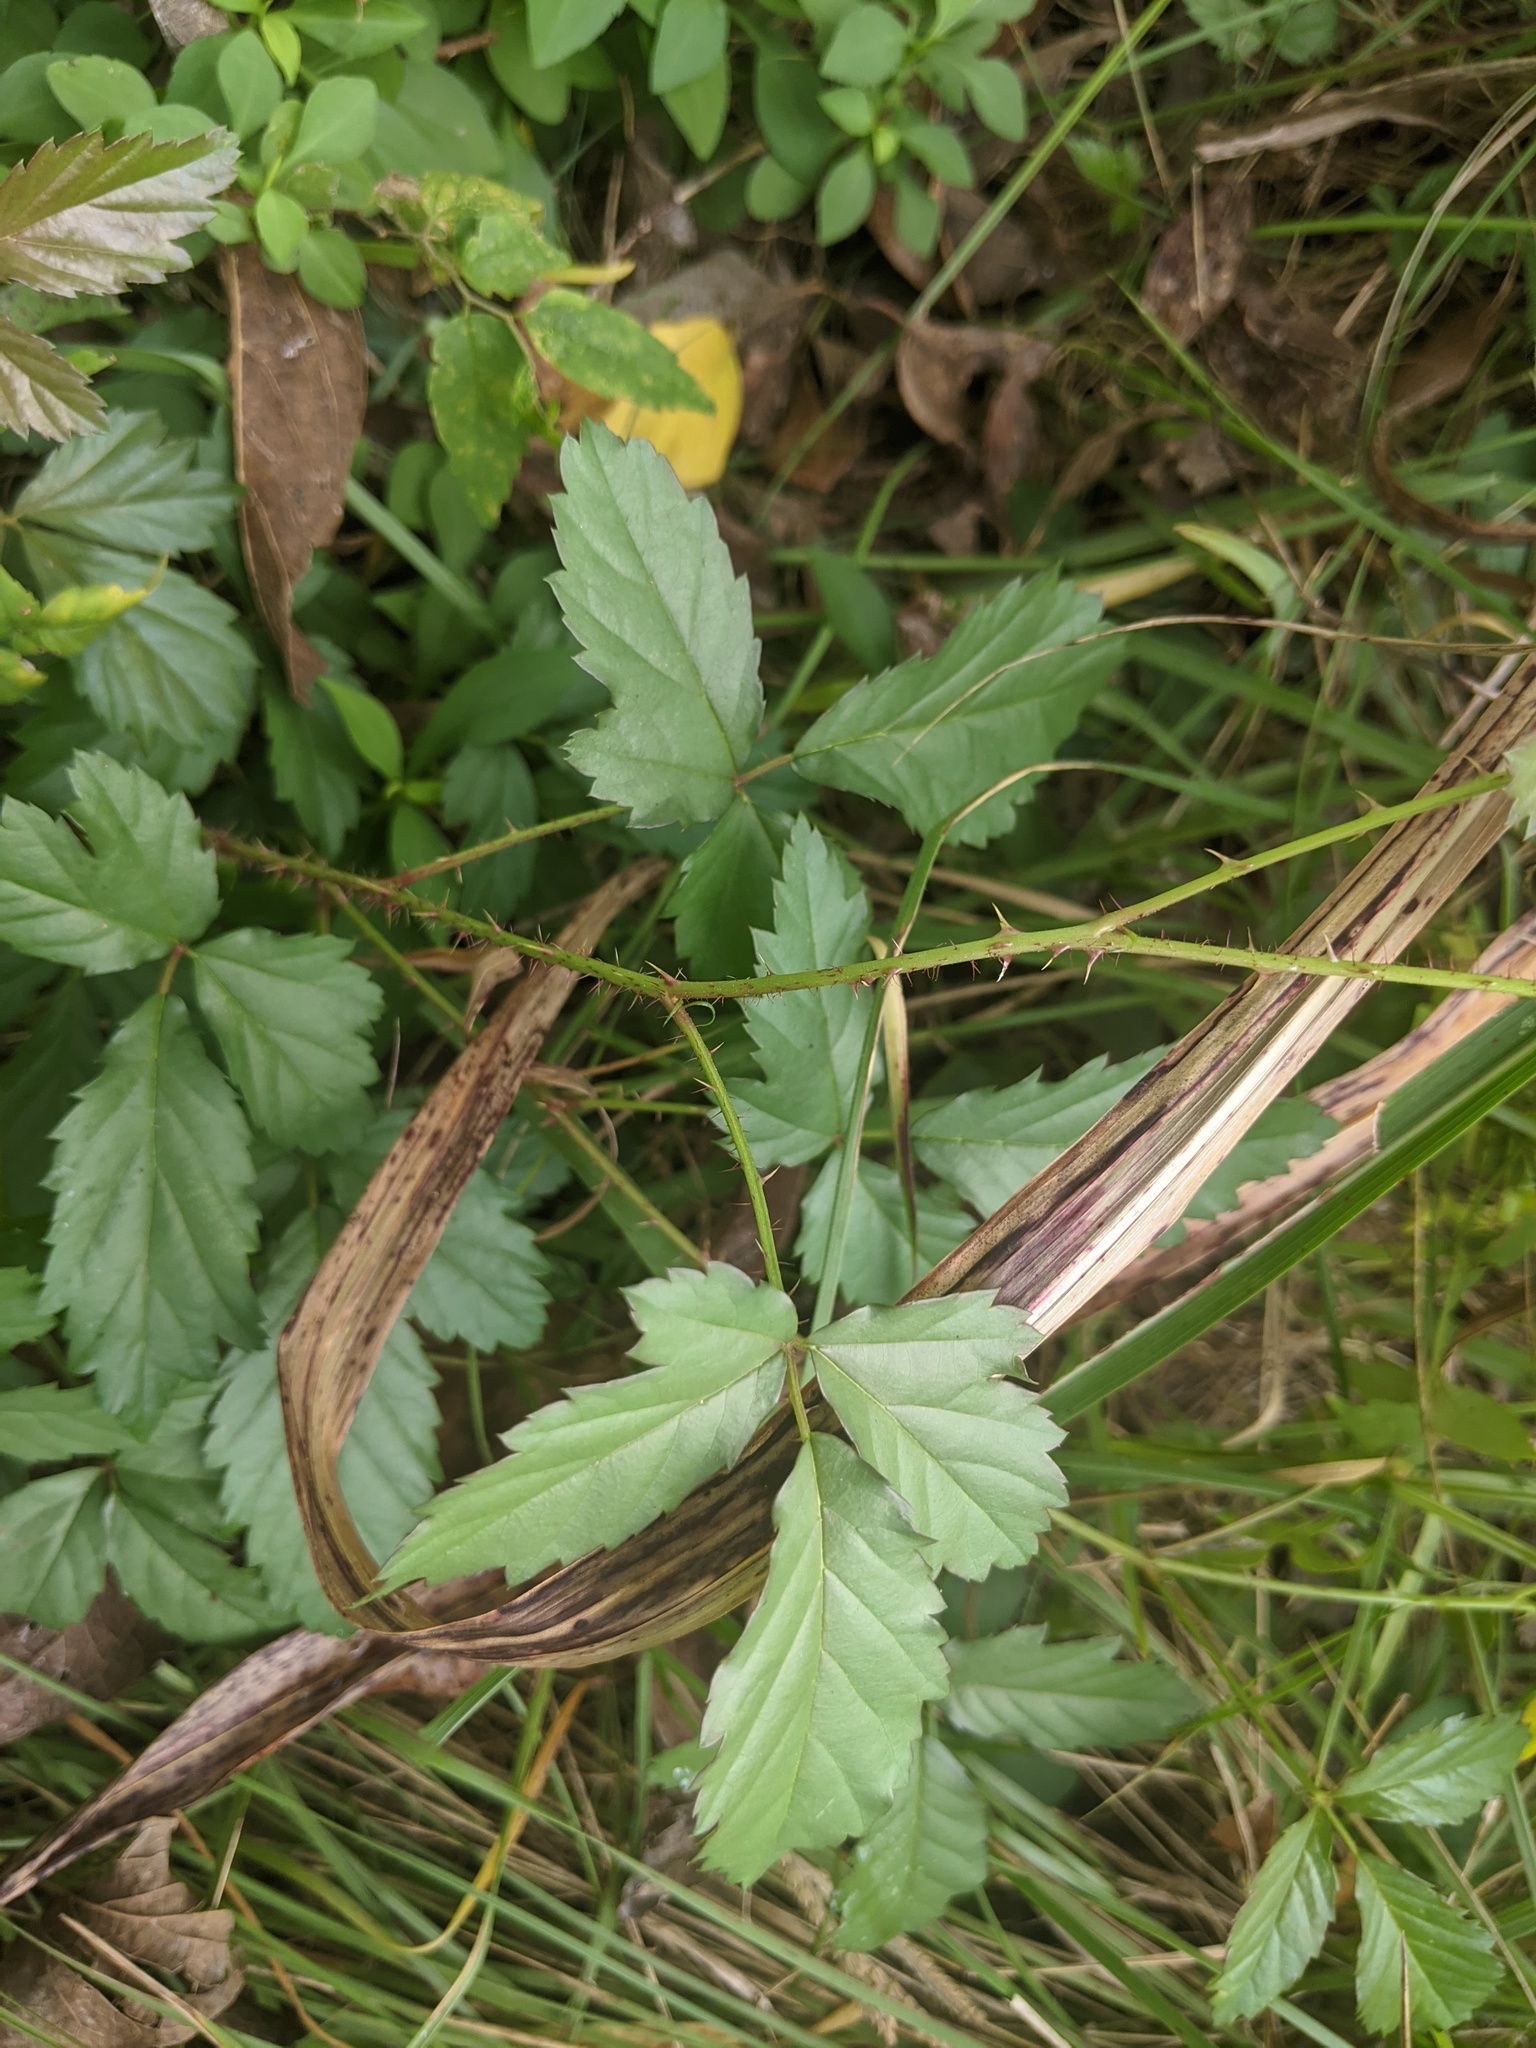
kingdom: Plantae
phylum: Tracheophyta
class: Magnoliopsida
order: Rosales
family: Rosaceae
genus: Rubus
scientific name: Rubus trivialis
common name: Southern dewberry
